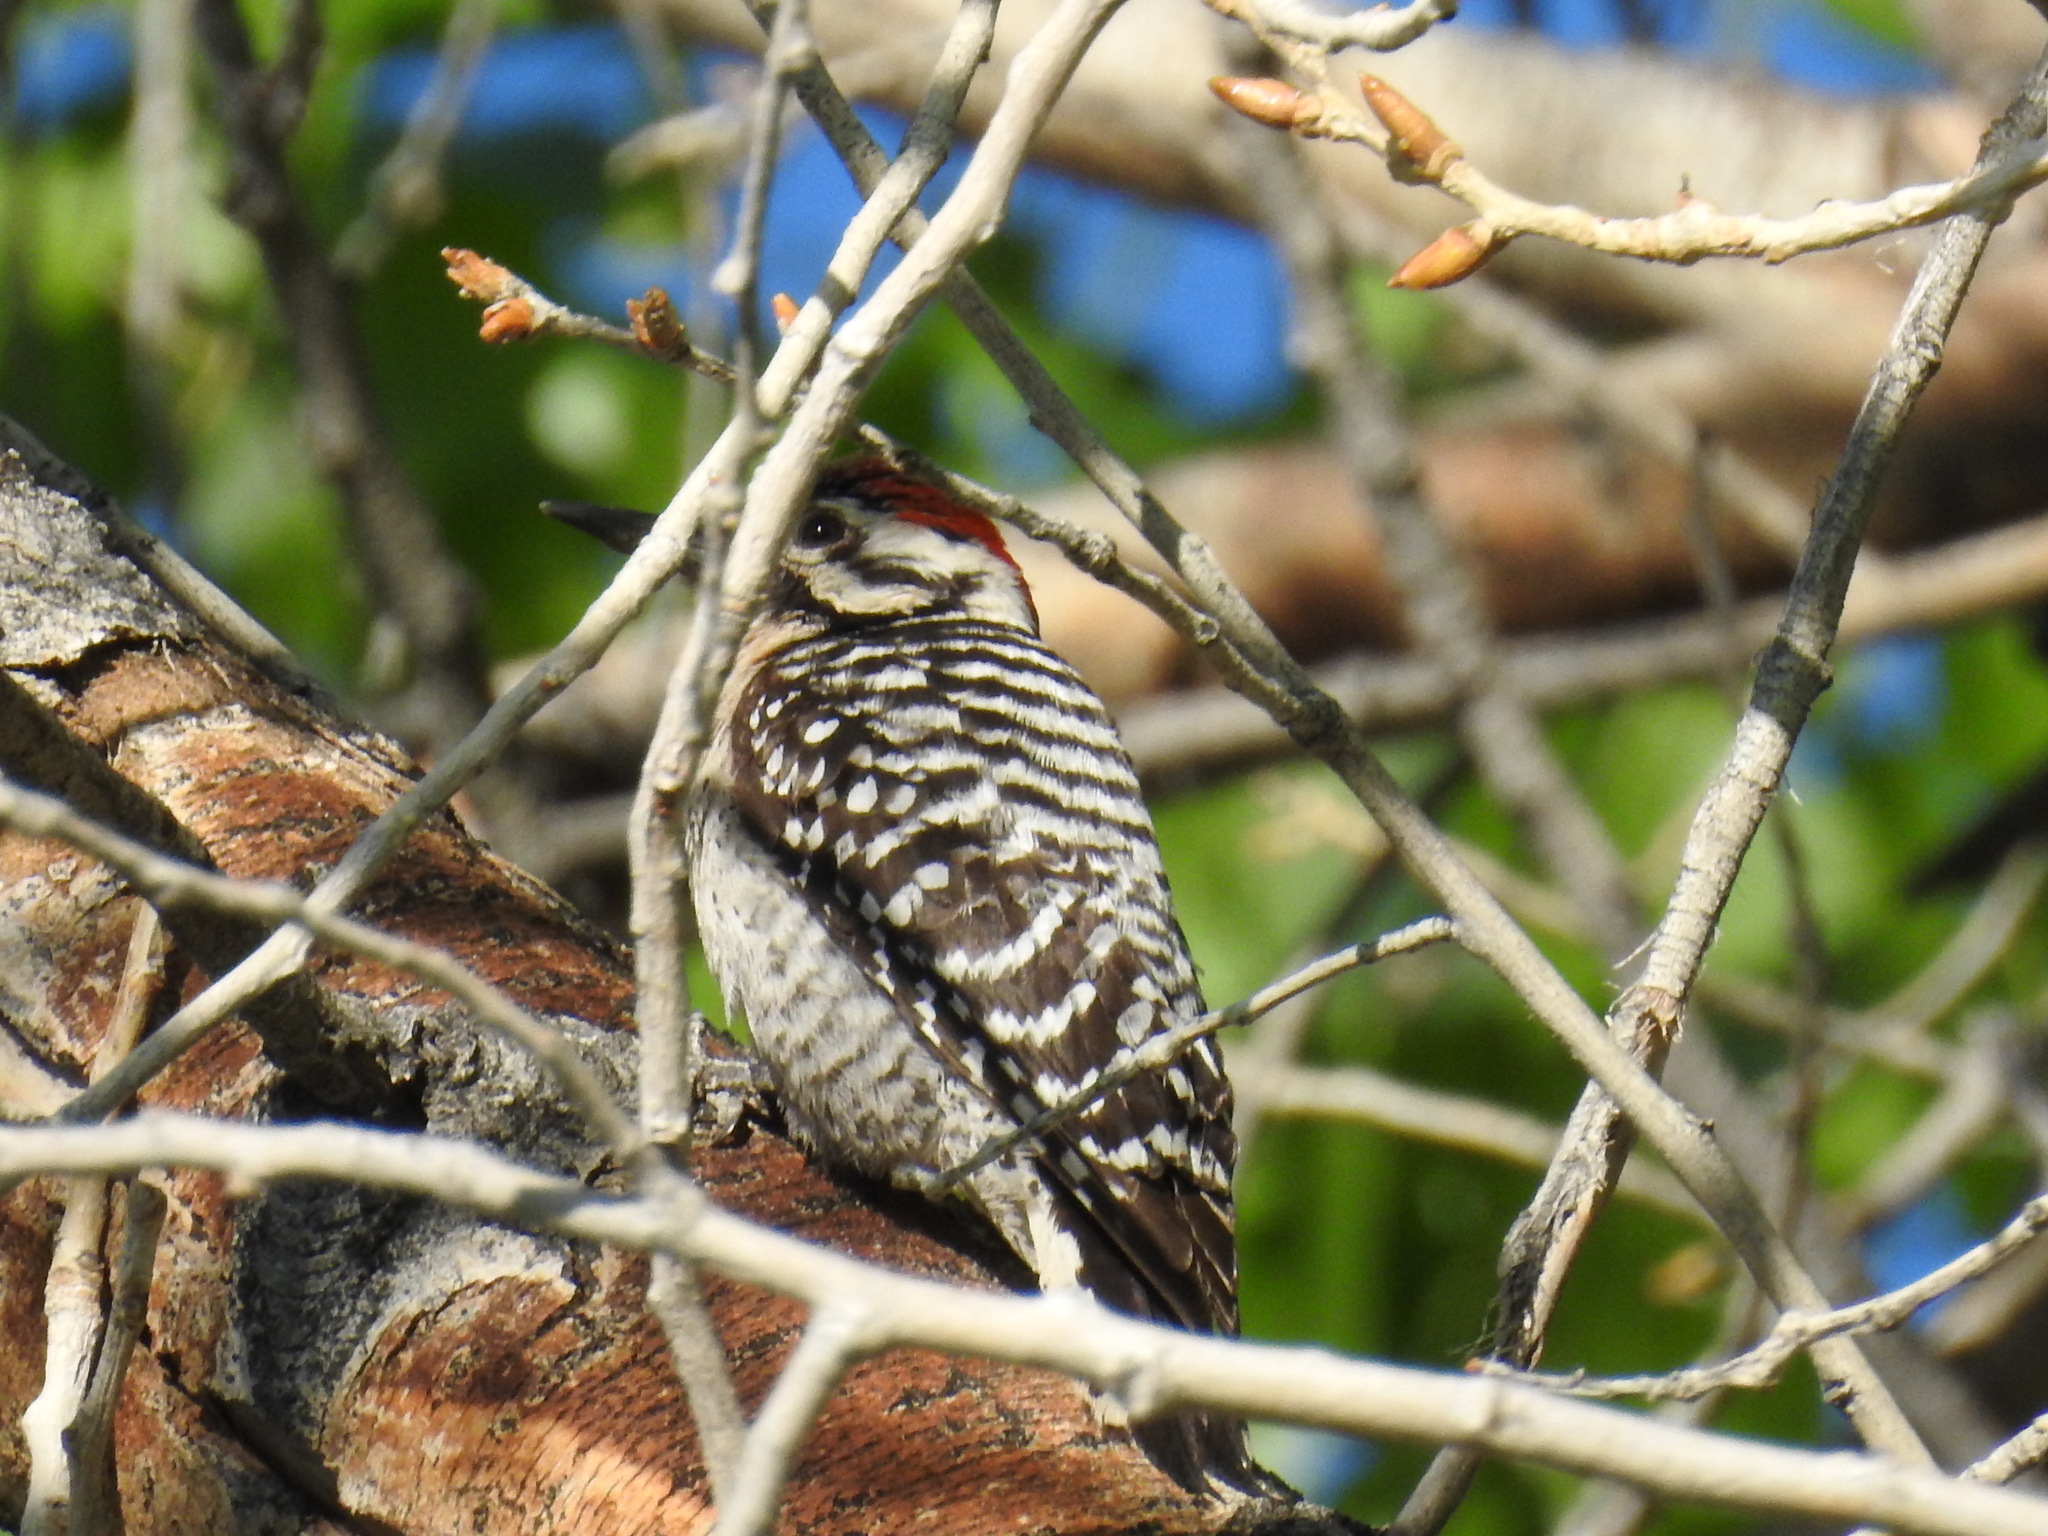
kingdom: Animalia
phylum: Chordata
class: Aves
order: Piciformes
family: Picidae
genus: Dryobates
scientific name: Dryobates scalaris
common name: Ladder-backed woodpecker
